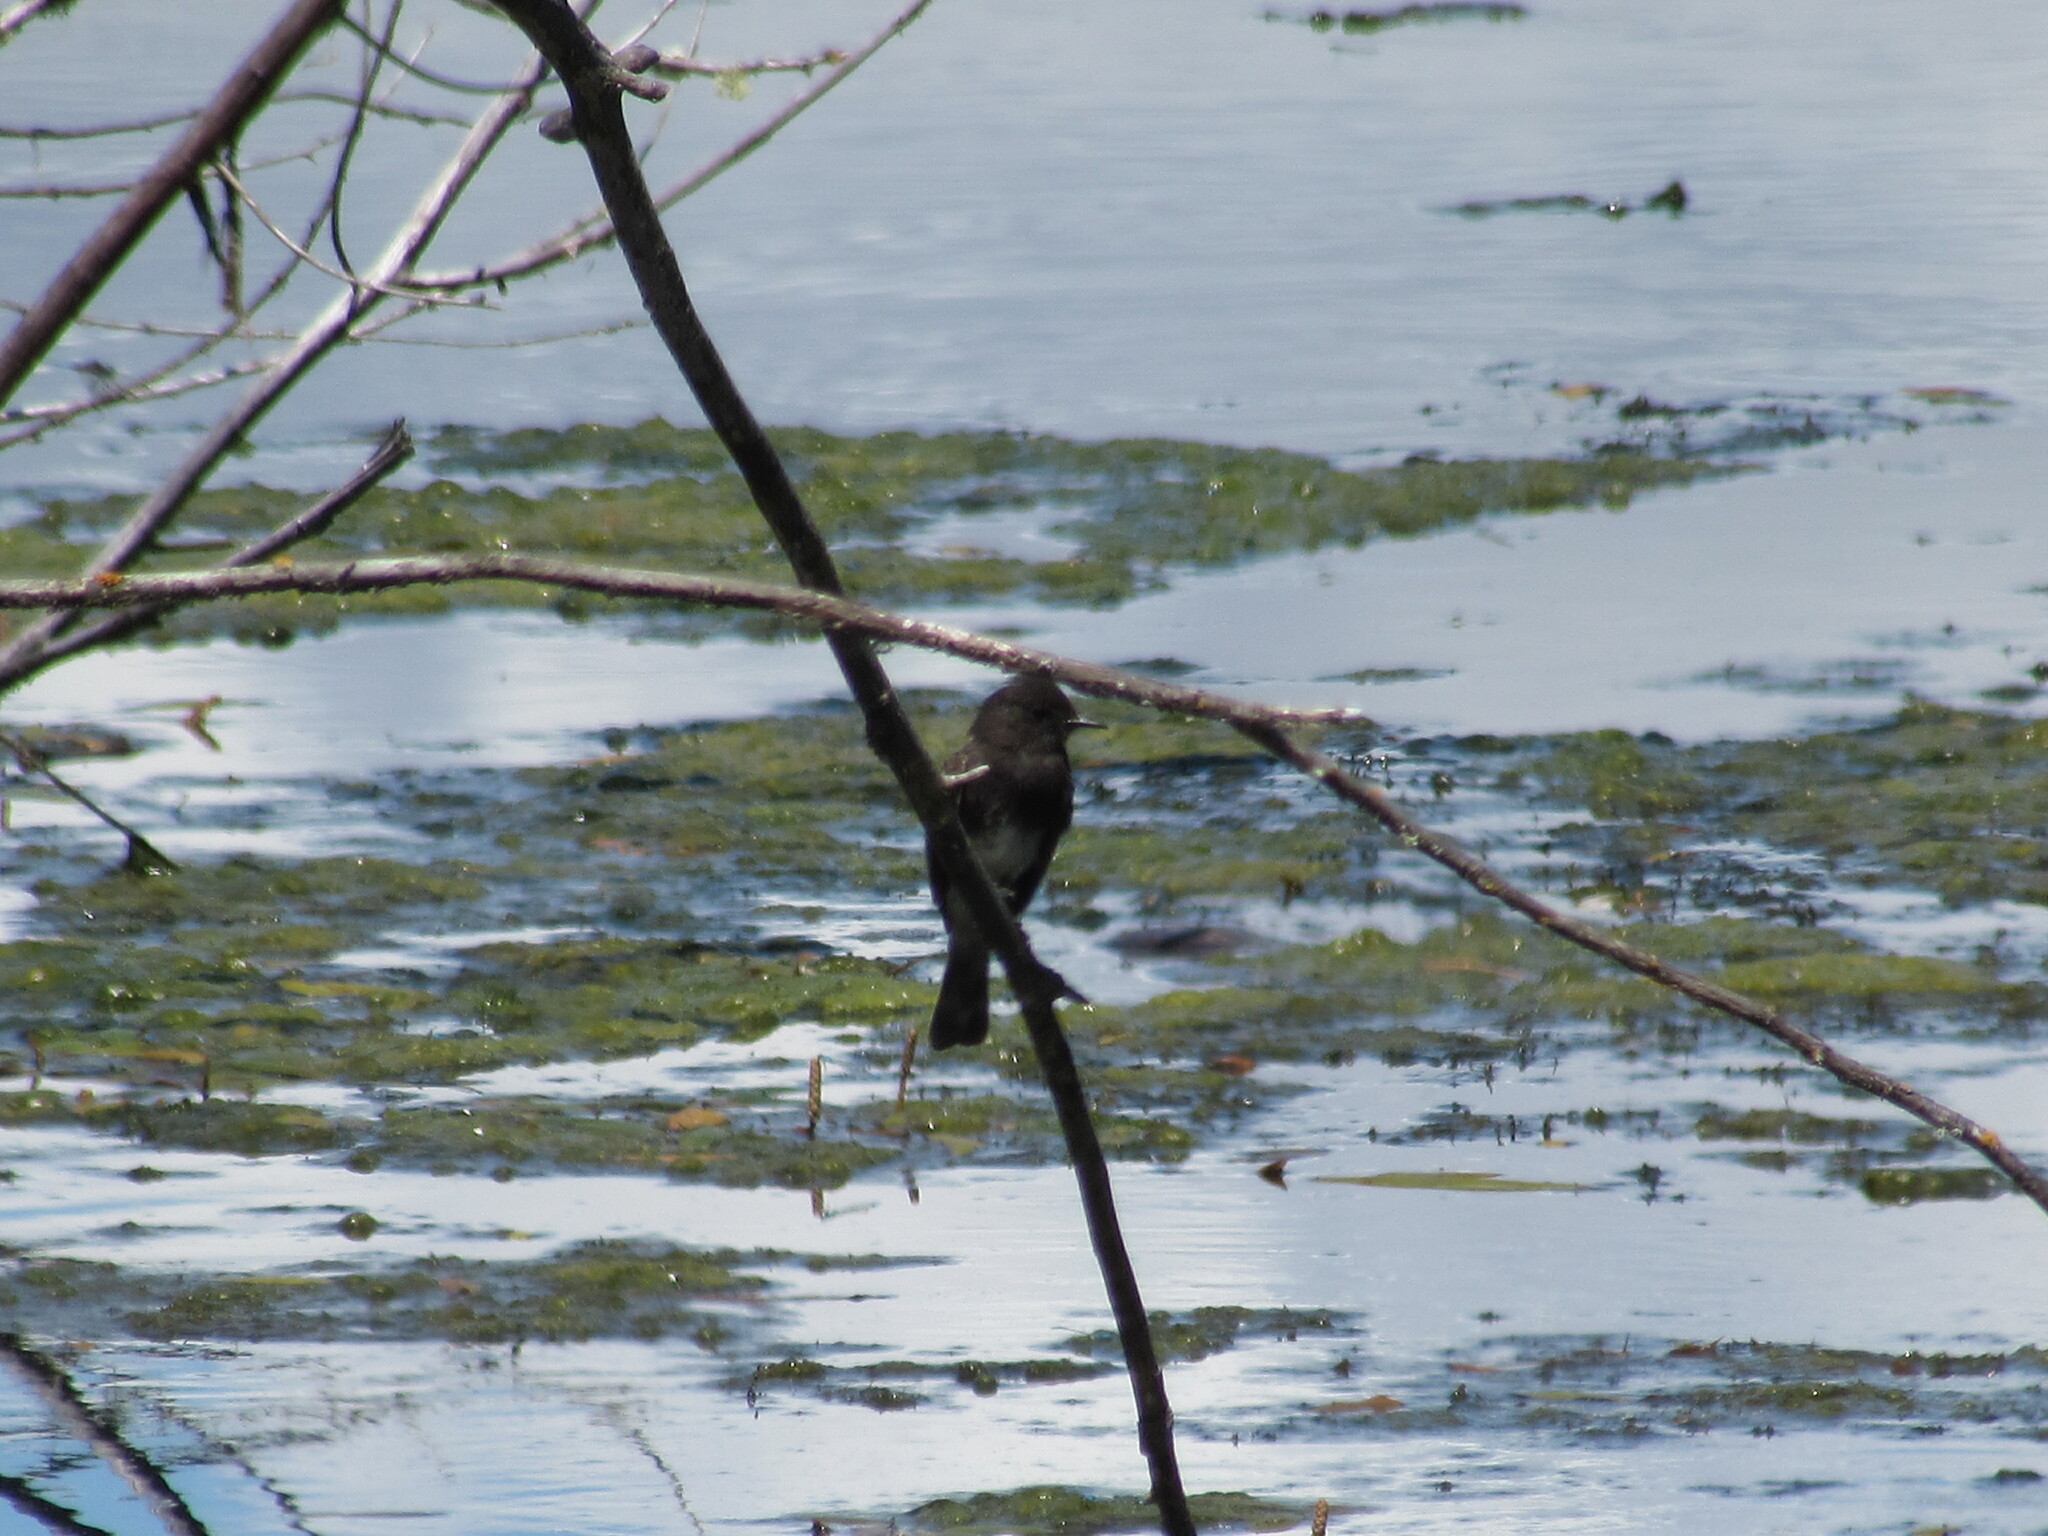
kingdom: Animalia
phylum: Chordata
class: Aves
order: Passeriformes
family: Tyrannidae
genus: Sayornis
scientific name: Sayornis nigricans
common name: Black phoebe
